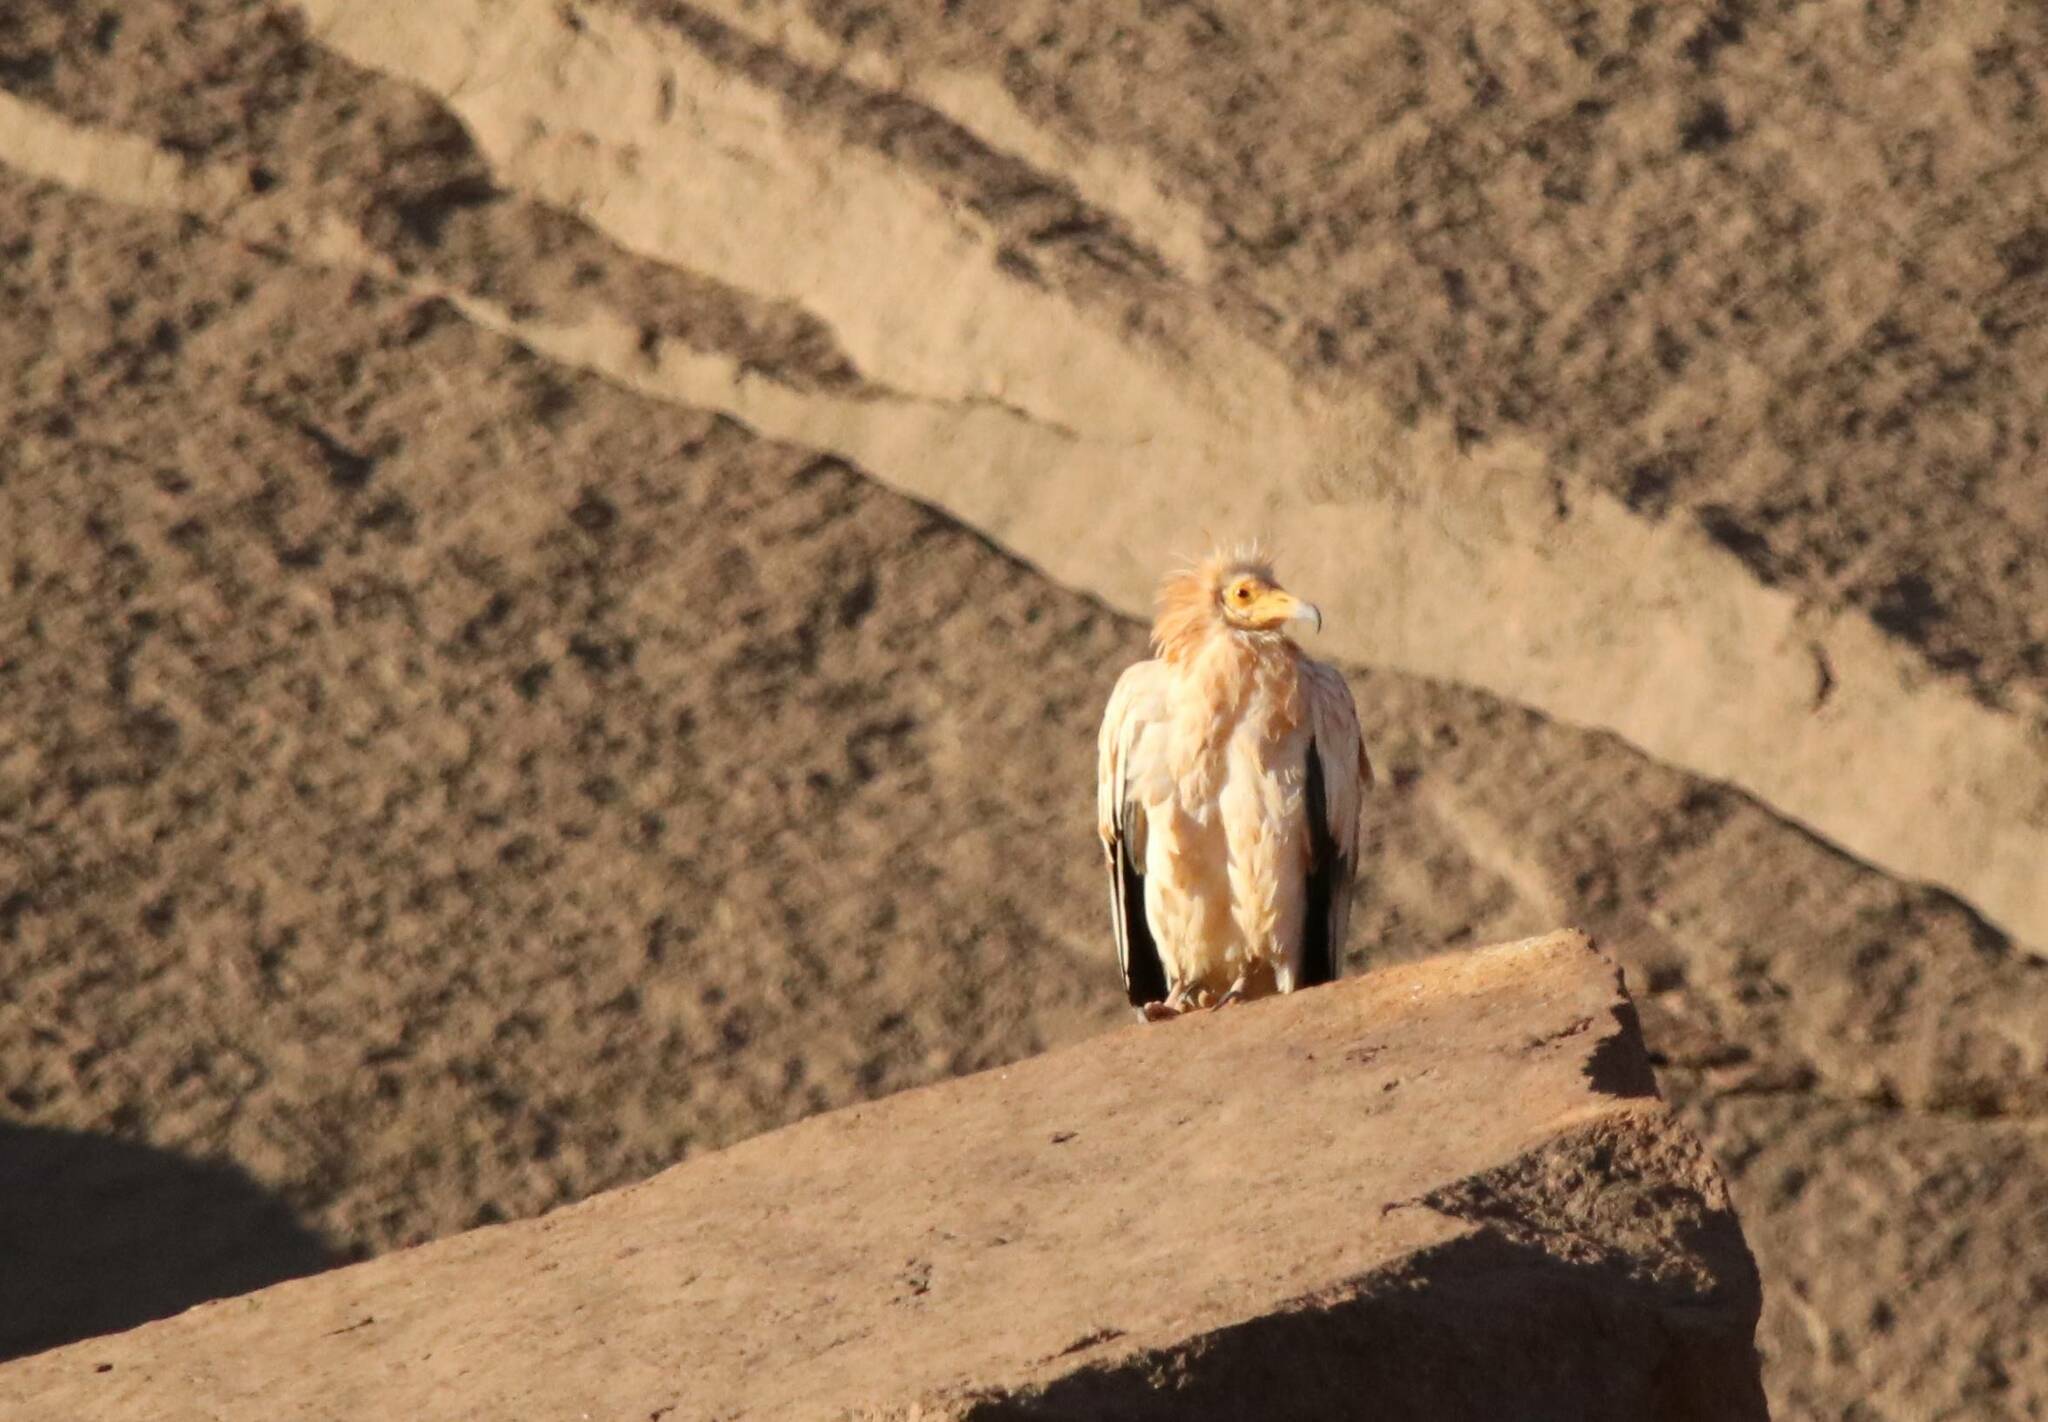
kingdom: Animalia
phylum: Chordata
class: Aves
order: Accipitriformes
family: Accipitridae
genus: Neophron
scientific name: Neophron percnopterus
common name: Egyptian vulture
